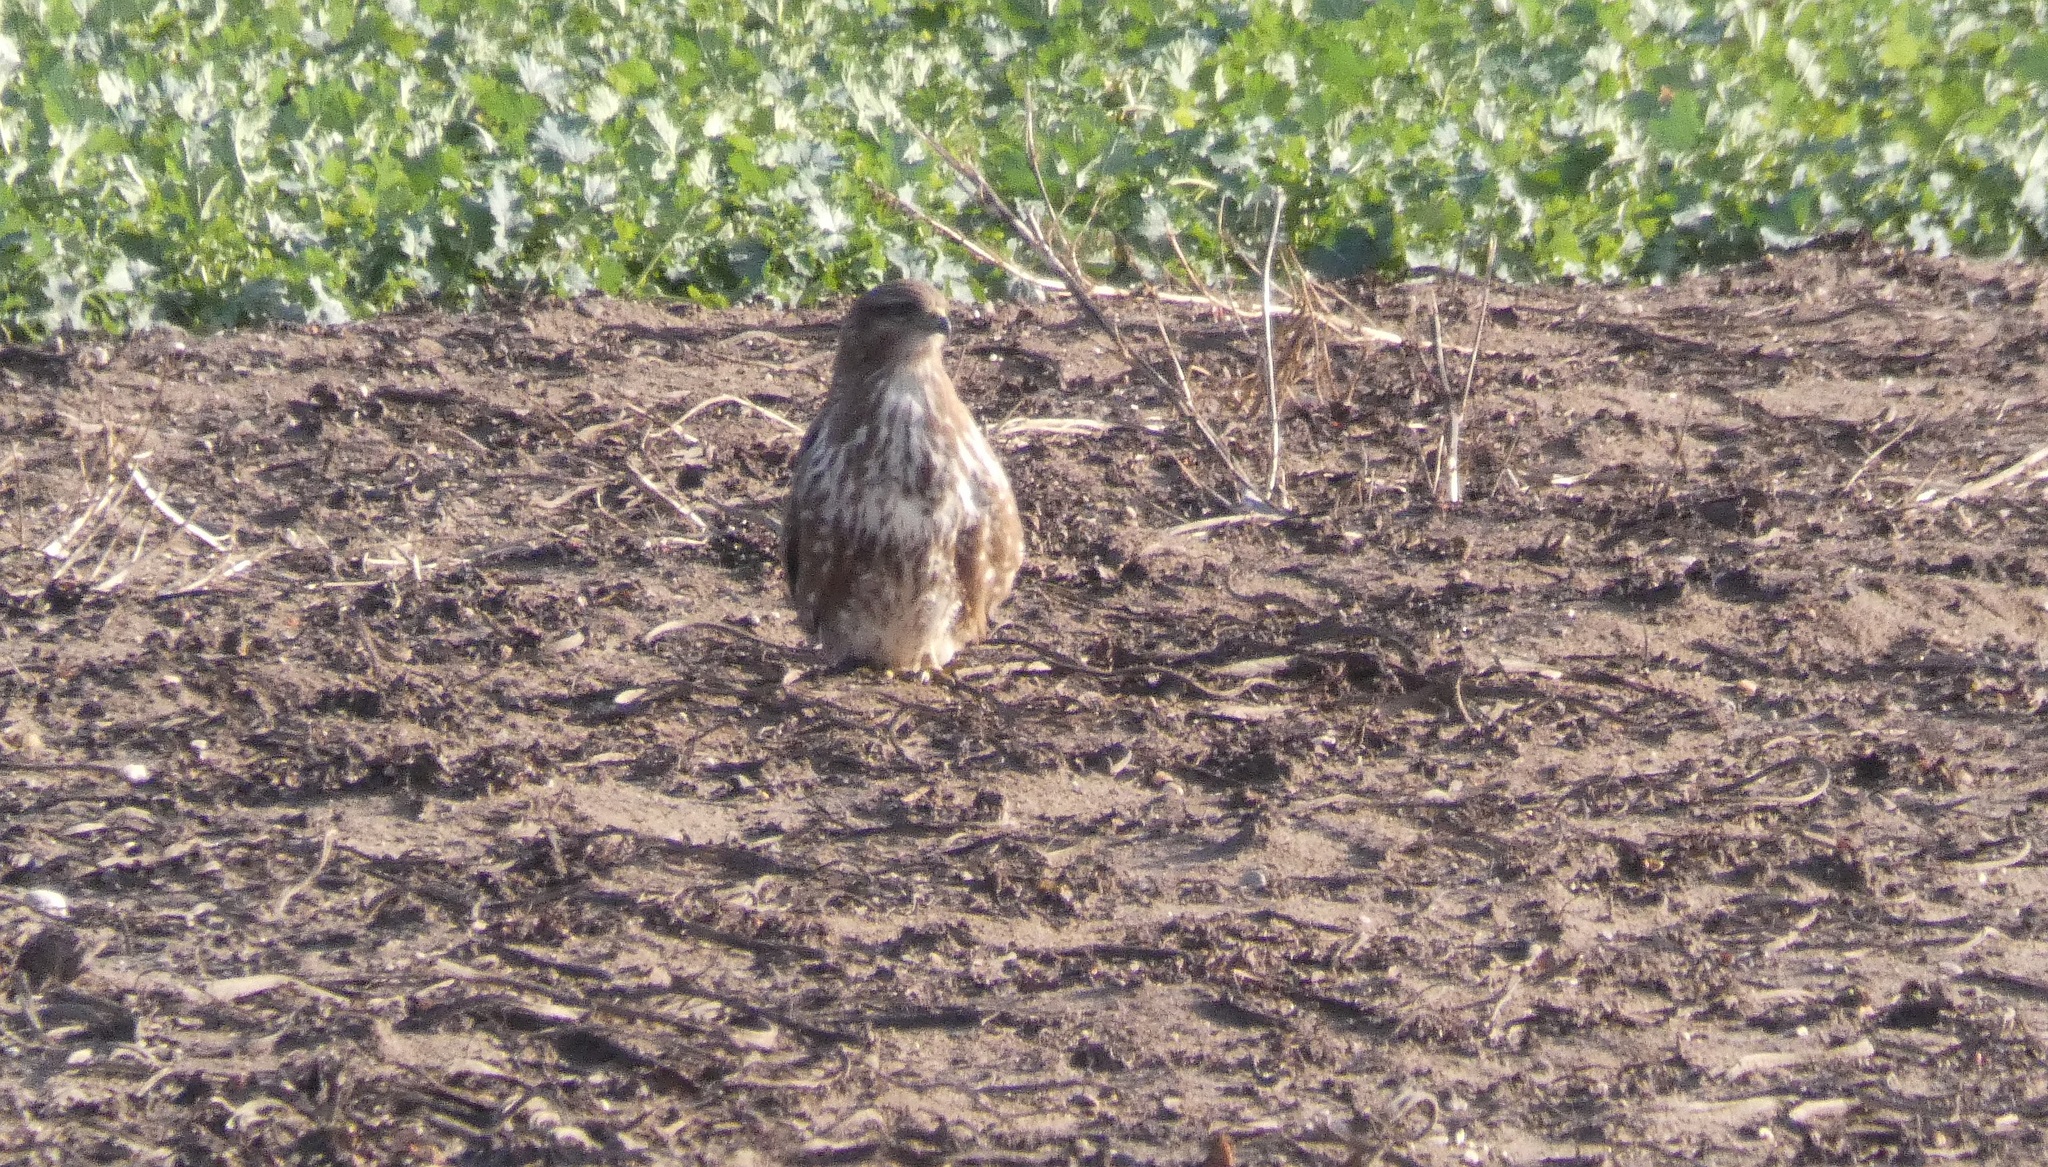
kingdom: Animalia
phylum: Chordata
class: Aves
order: Accipitriformes
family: Accipitridae
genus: Buteo
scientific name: Buteo buteo
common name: Common buzzard
